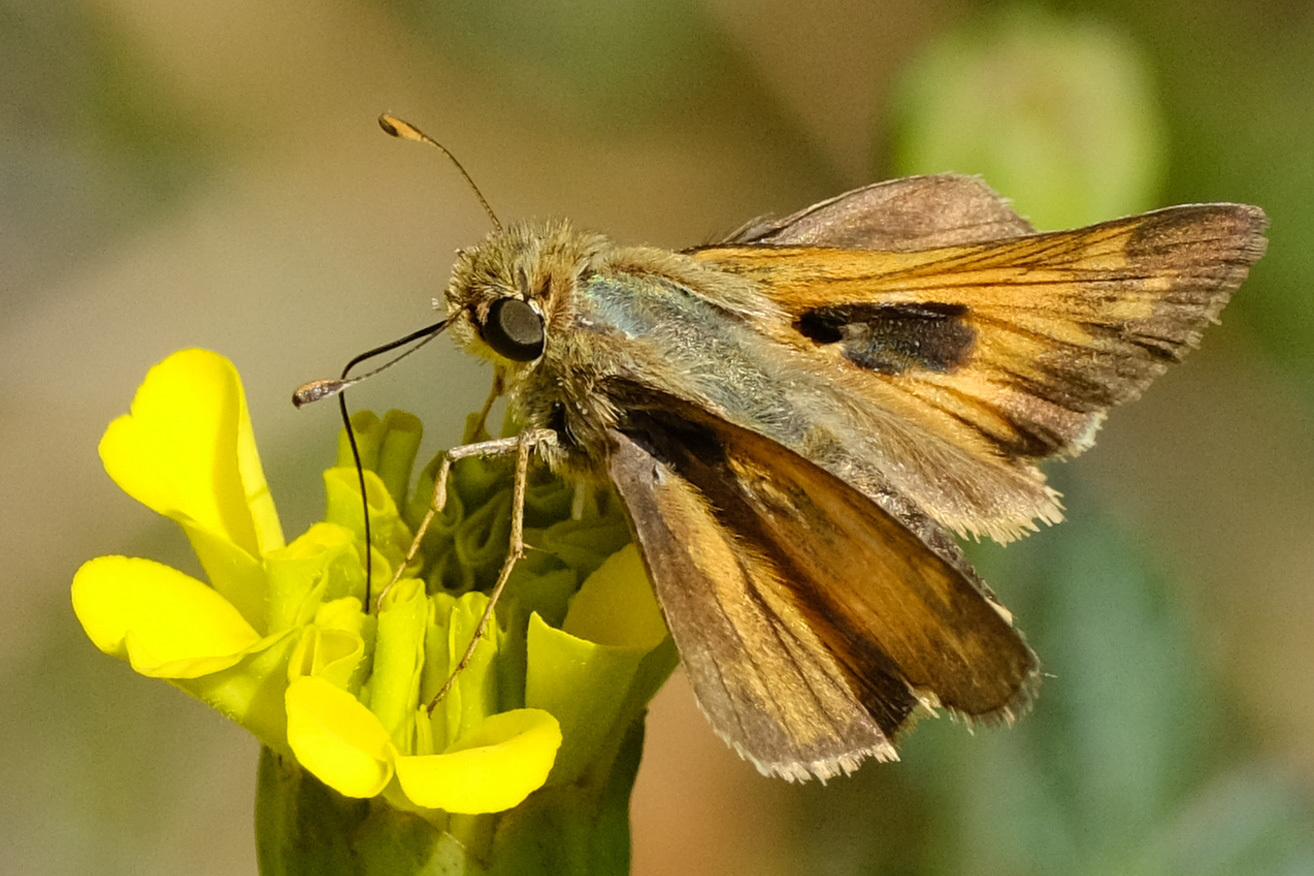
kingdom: Animalia
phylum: Arthropoda
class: Insecta
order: Lepidoptera
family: Hesperiidae
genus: Atalopedes
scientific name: Atalopedes
